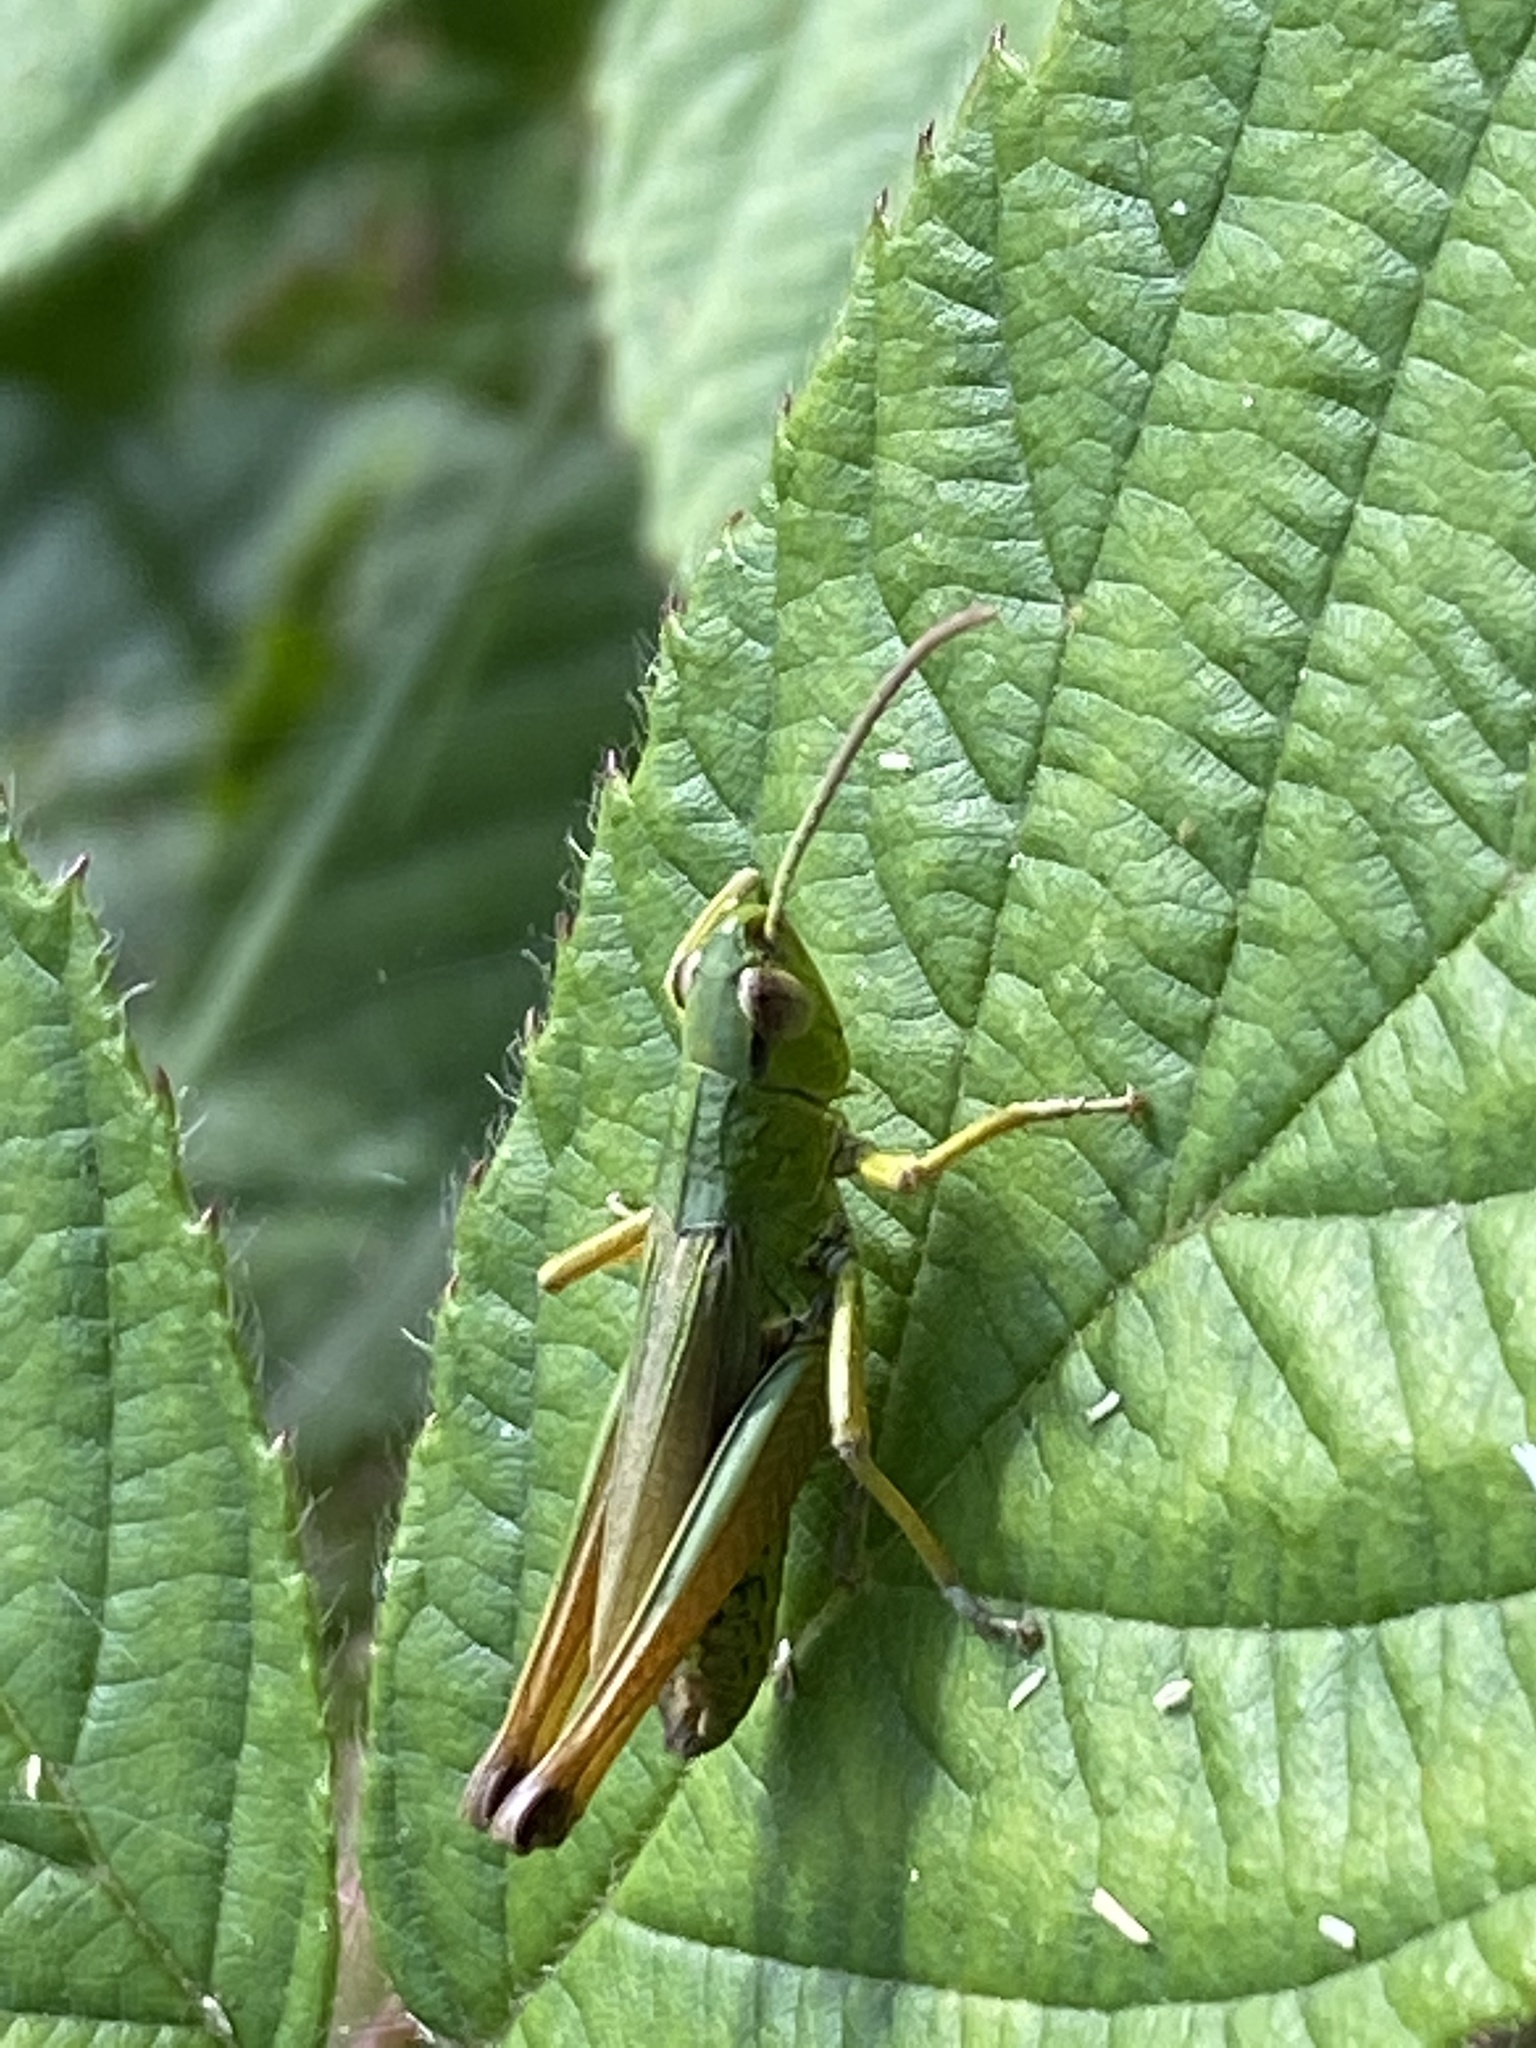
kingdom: Animalia
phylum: Arthropoda
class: Insecta
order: Orthoptera
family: Acrididae
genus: Pseudochorthippus
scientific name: Pseudochorthippus parallelus
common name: Meadow grasshopper
